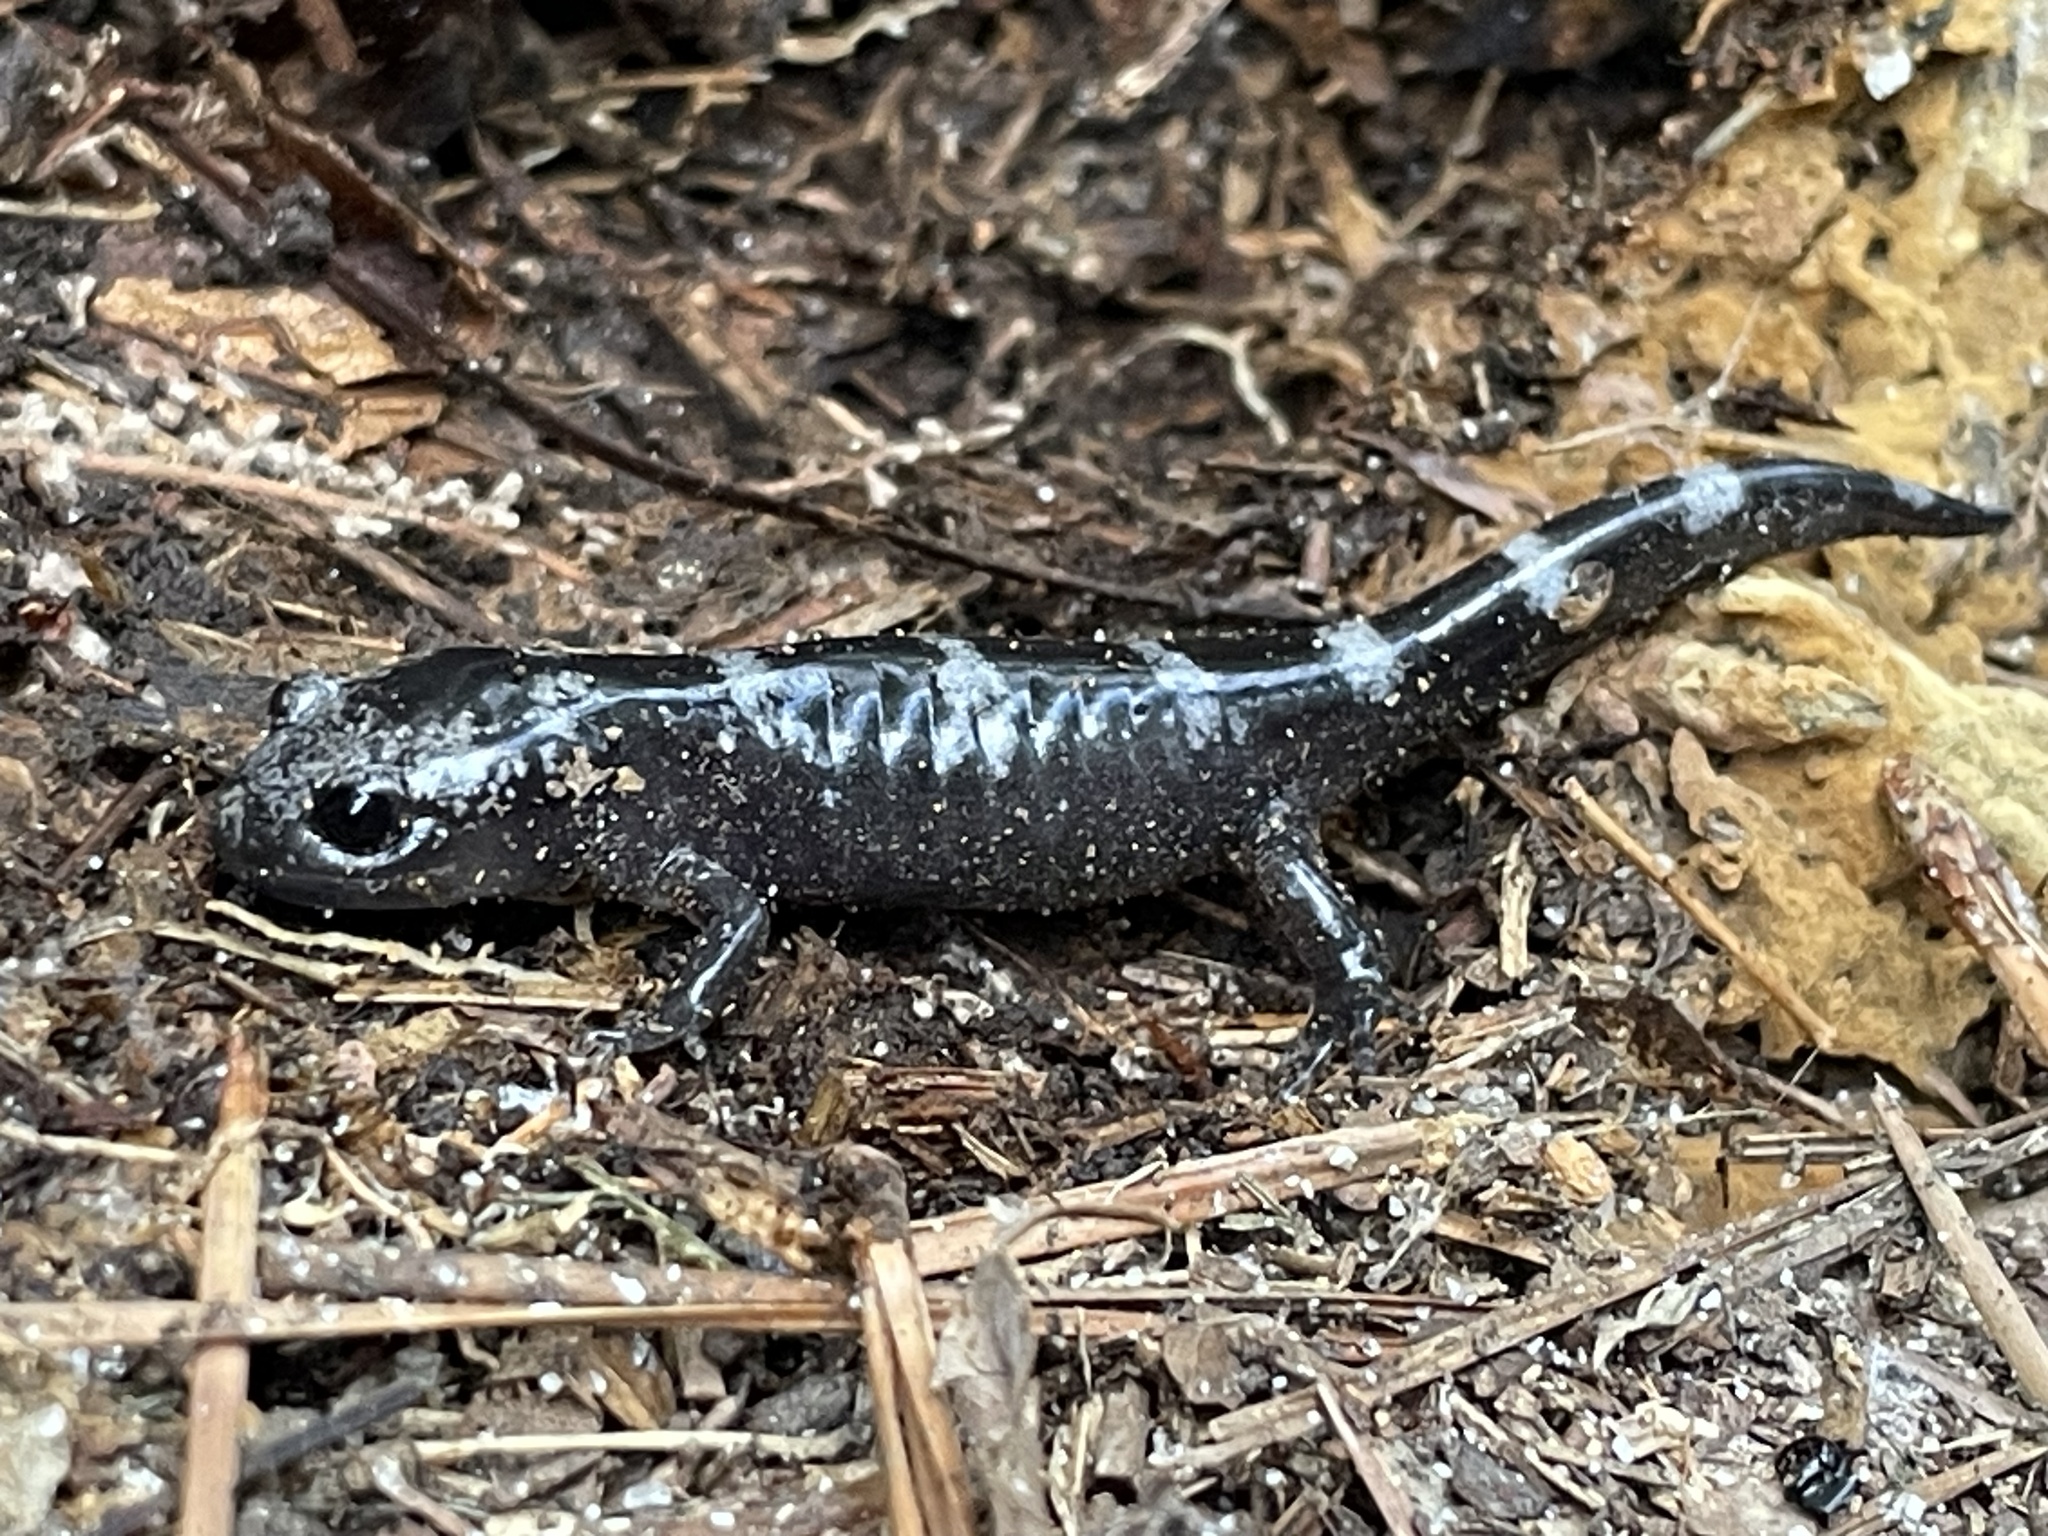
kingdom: Animalia
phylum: Chordata
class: Amphibia
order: Caudata
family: Ambystomatidae
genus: Ambystoma
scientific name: Ambystoma opacum
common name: Marbled salamander
